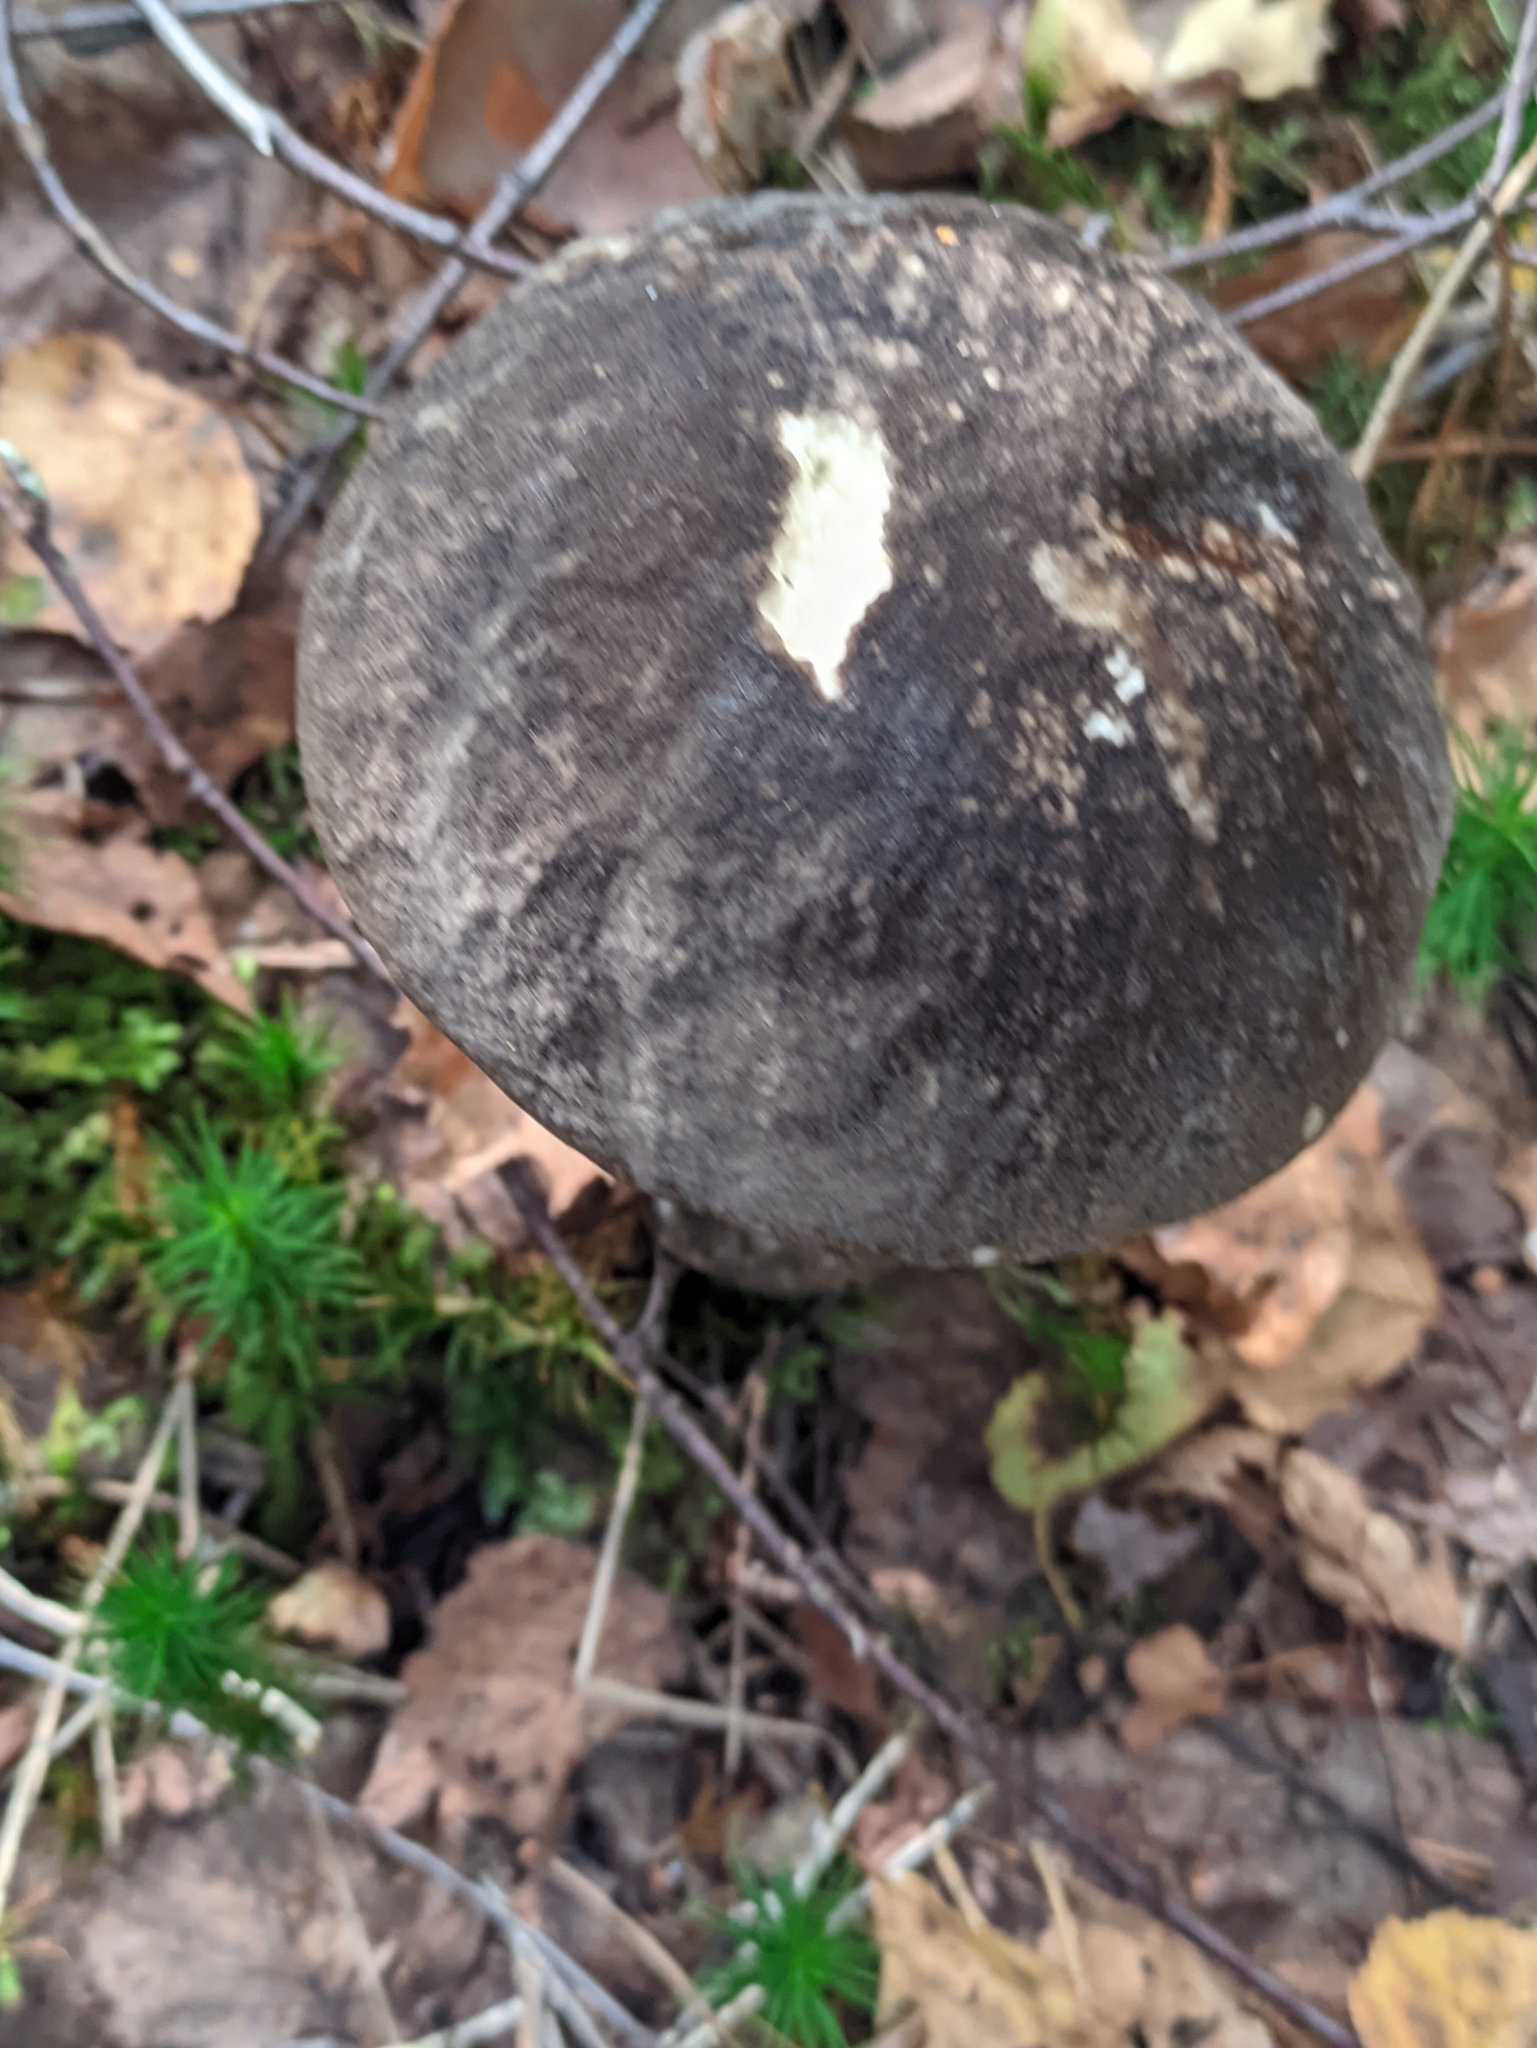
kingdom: Fungi
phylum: Basidiomycota
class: Agaricomycetes
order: Boletales
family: Boletaceae
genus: Leccinum
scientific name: Leccinum variicolor
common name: Mottled bolete
